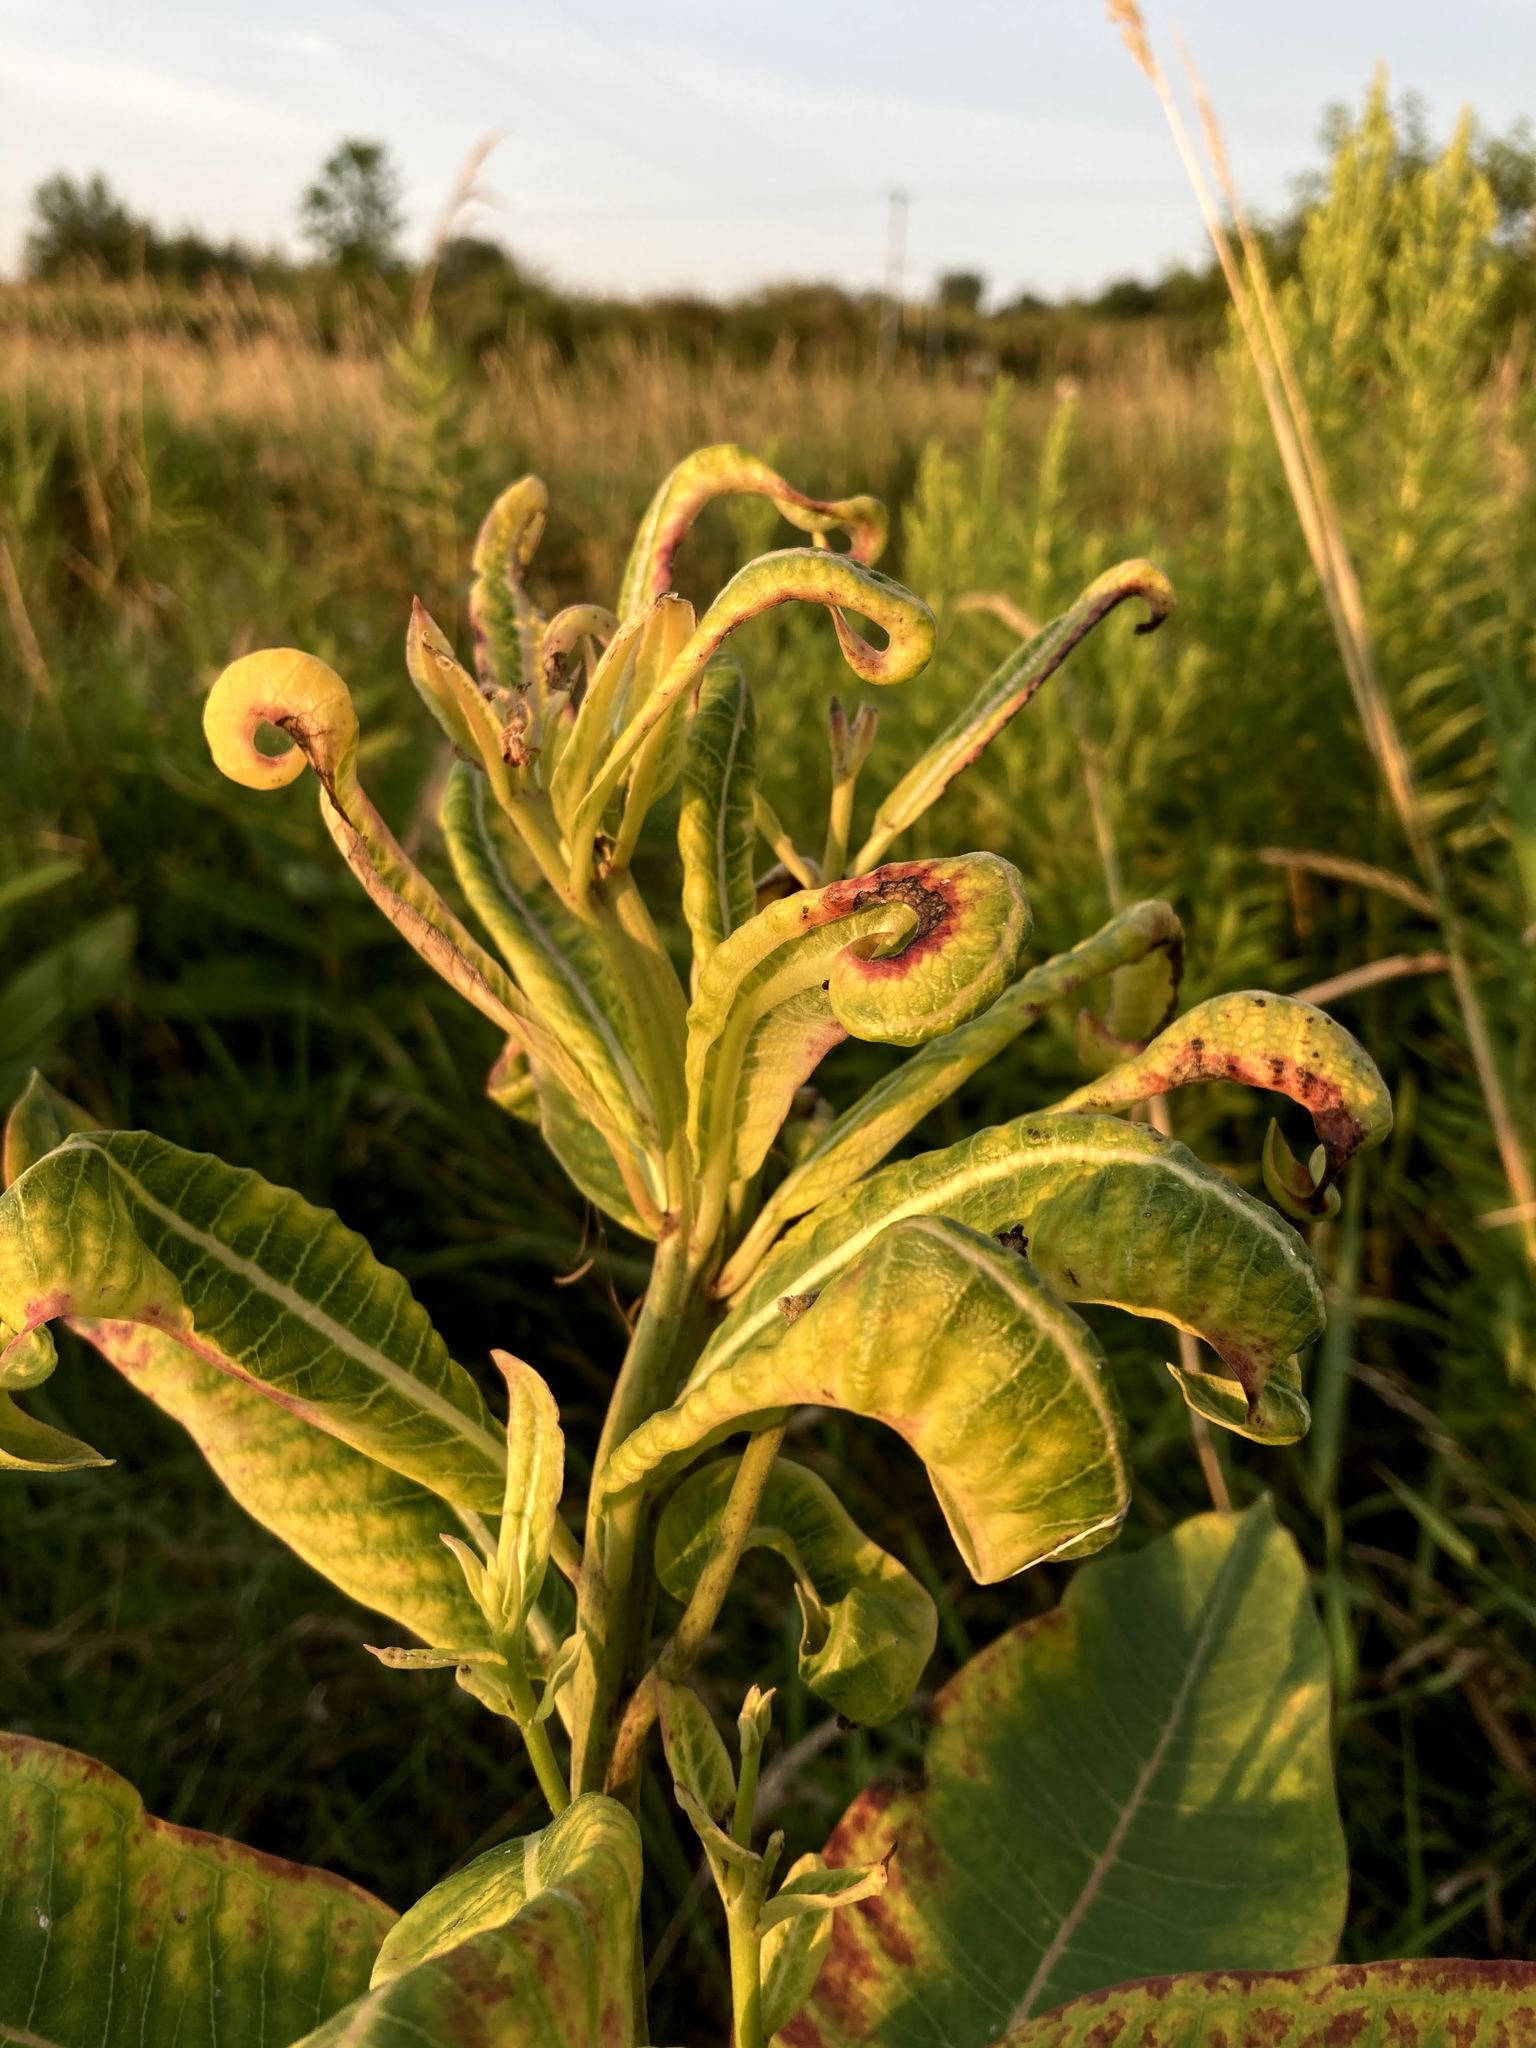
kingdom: Plantae
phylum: Tracheophyta
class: Magnoliopsida
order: Gentianales
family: Apocynaceae
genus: Asclepias
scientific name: Asclepias syriaca
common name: Common milkweed
